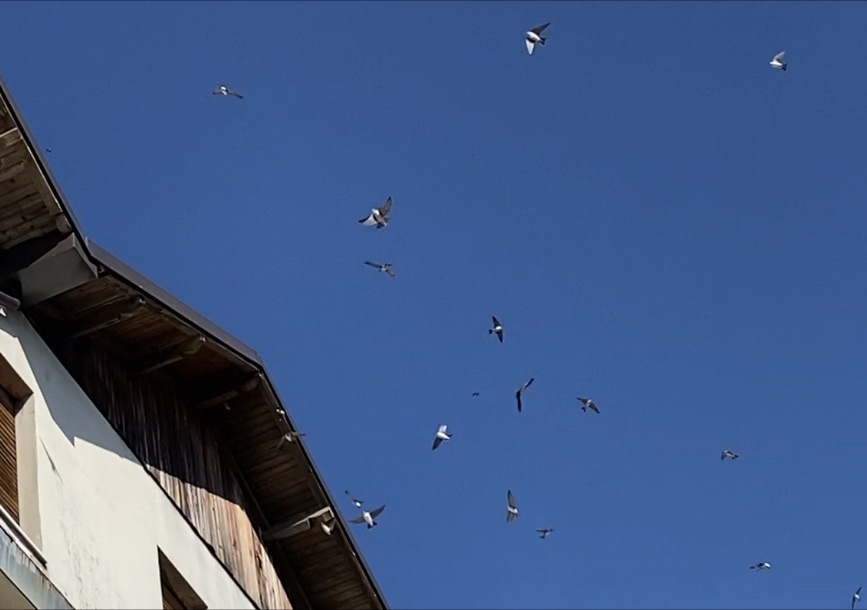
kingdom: Animalia
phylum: Chordata
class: Aves
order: Passeriformes
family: Hirundinidae
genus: Delichon
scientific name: Delichon urbicum
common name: Common house martin
